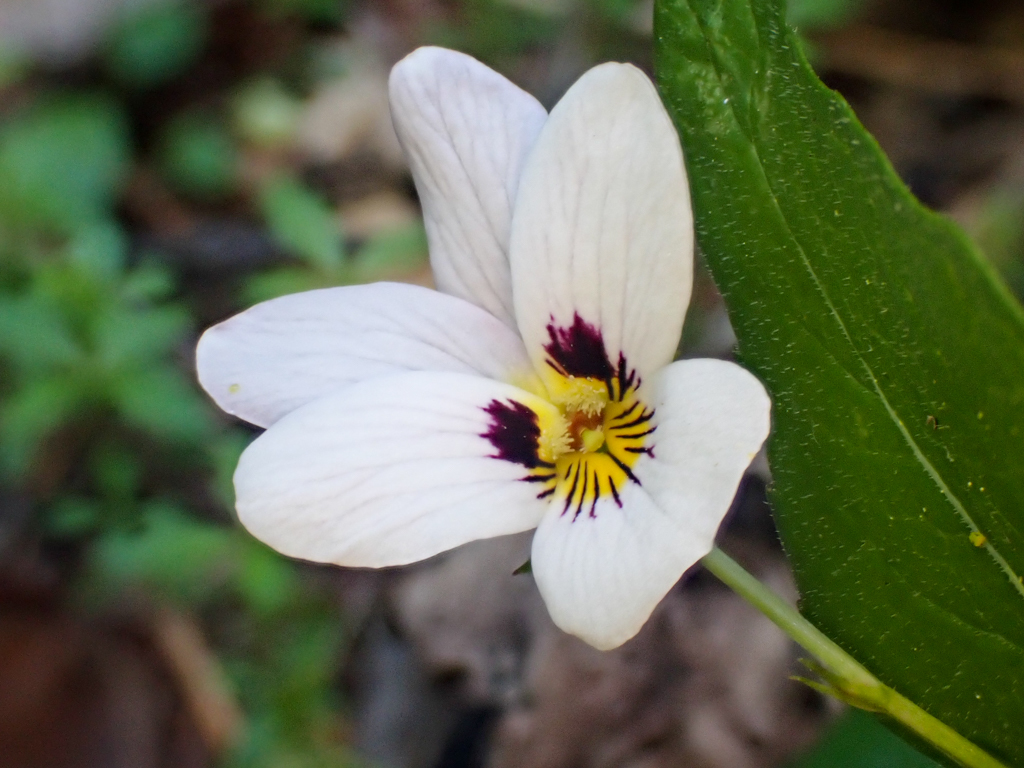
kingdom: Plantae
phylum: Tracheophyta
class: Magnoliopsida
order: Malpighiales
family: Violaceae
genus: Viola
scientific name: Viola ocellata
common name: Western heart's ease
